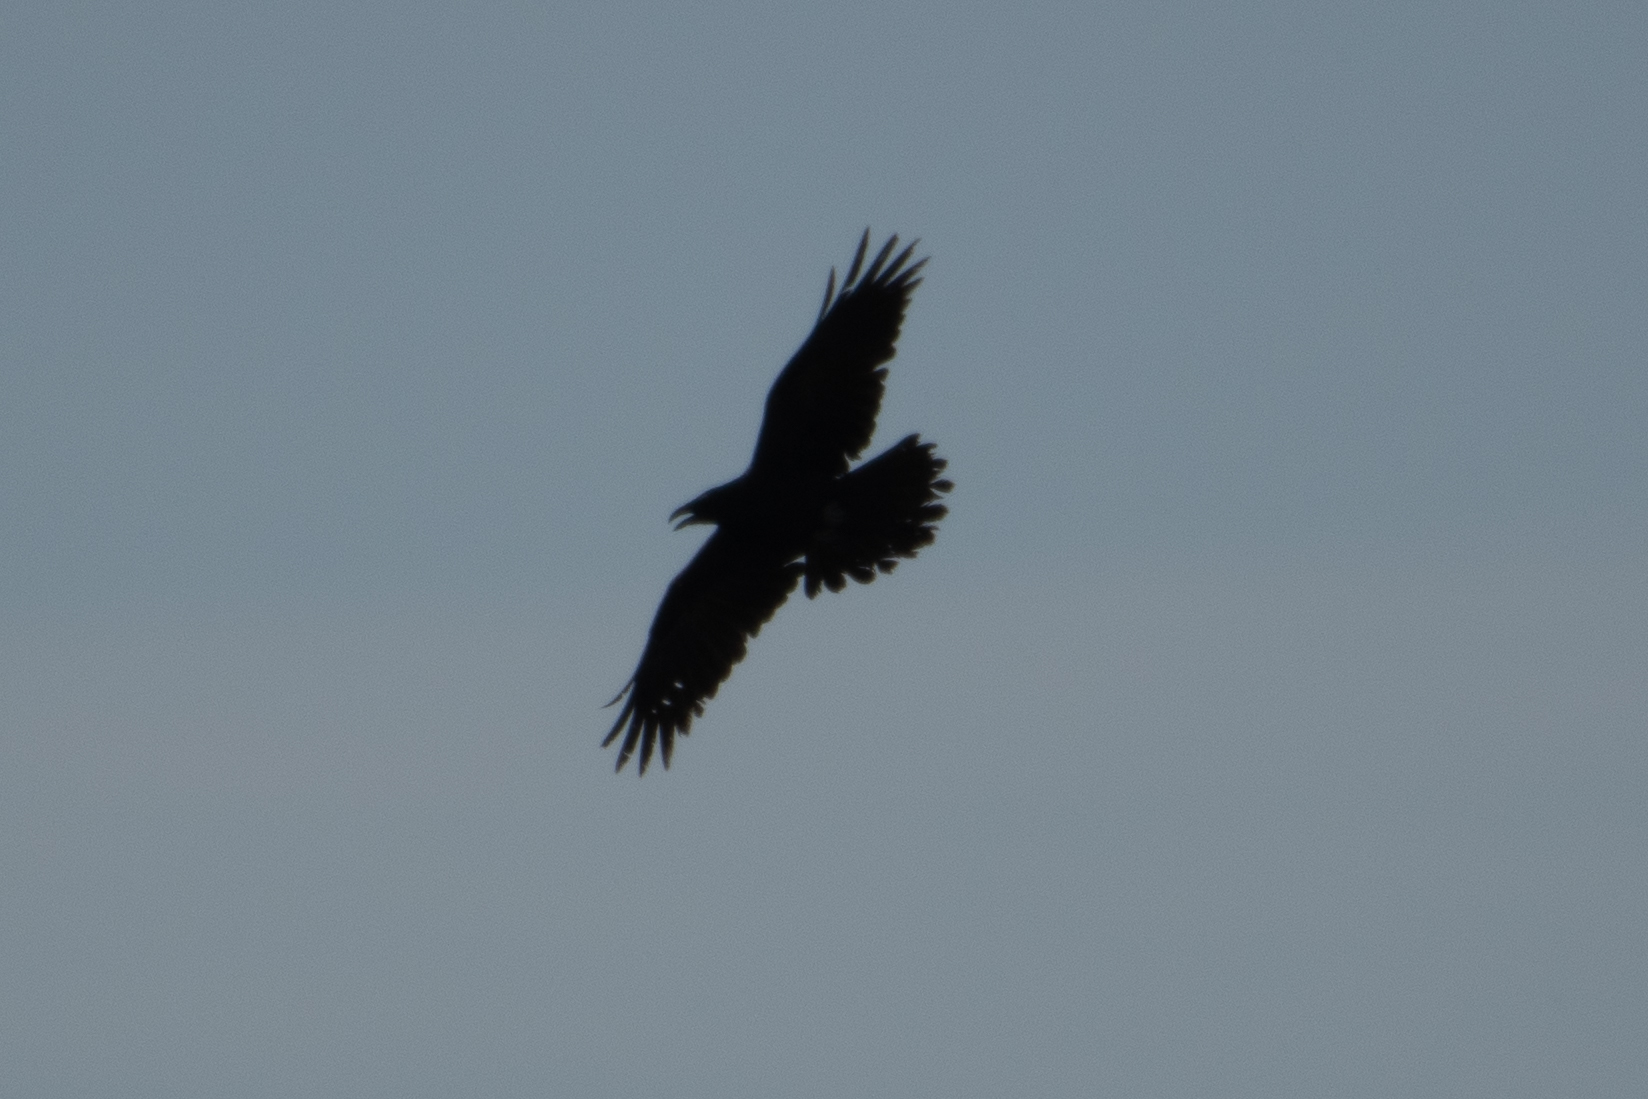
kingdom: Animalia
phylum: Chordata
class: Aves
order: Passeriformes
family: Corvidae
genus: Corvus
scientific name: Corvus corax
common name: Common raven
